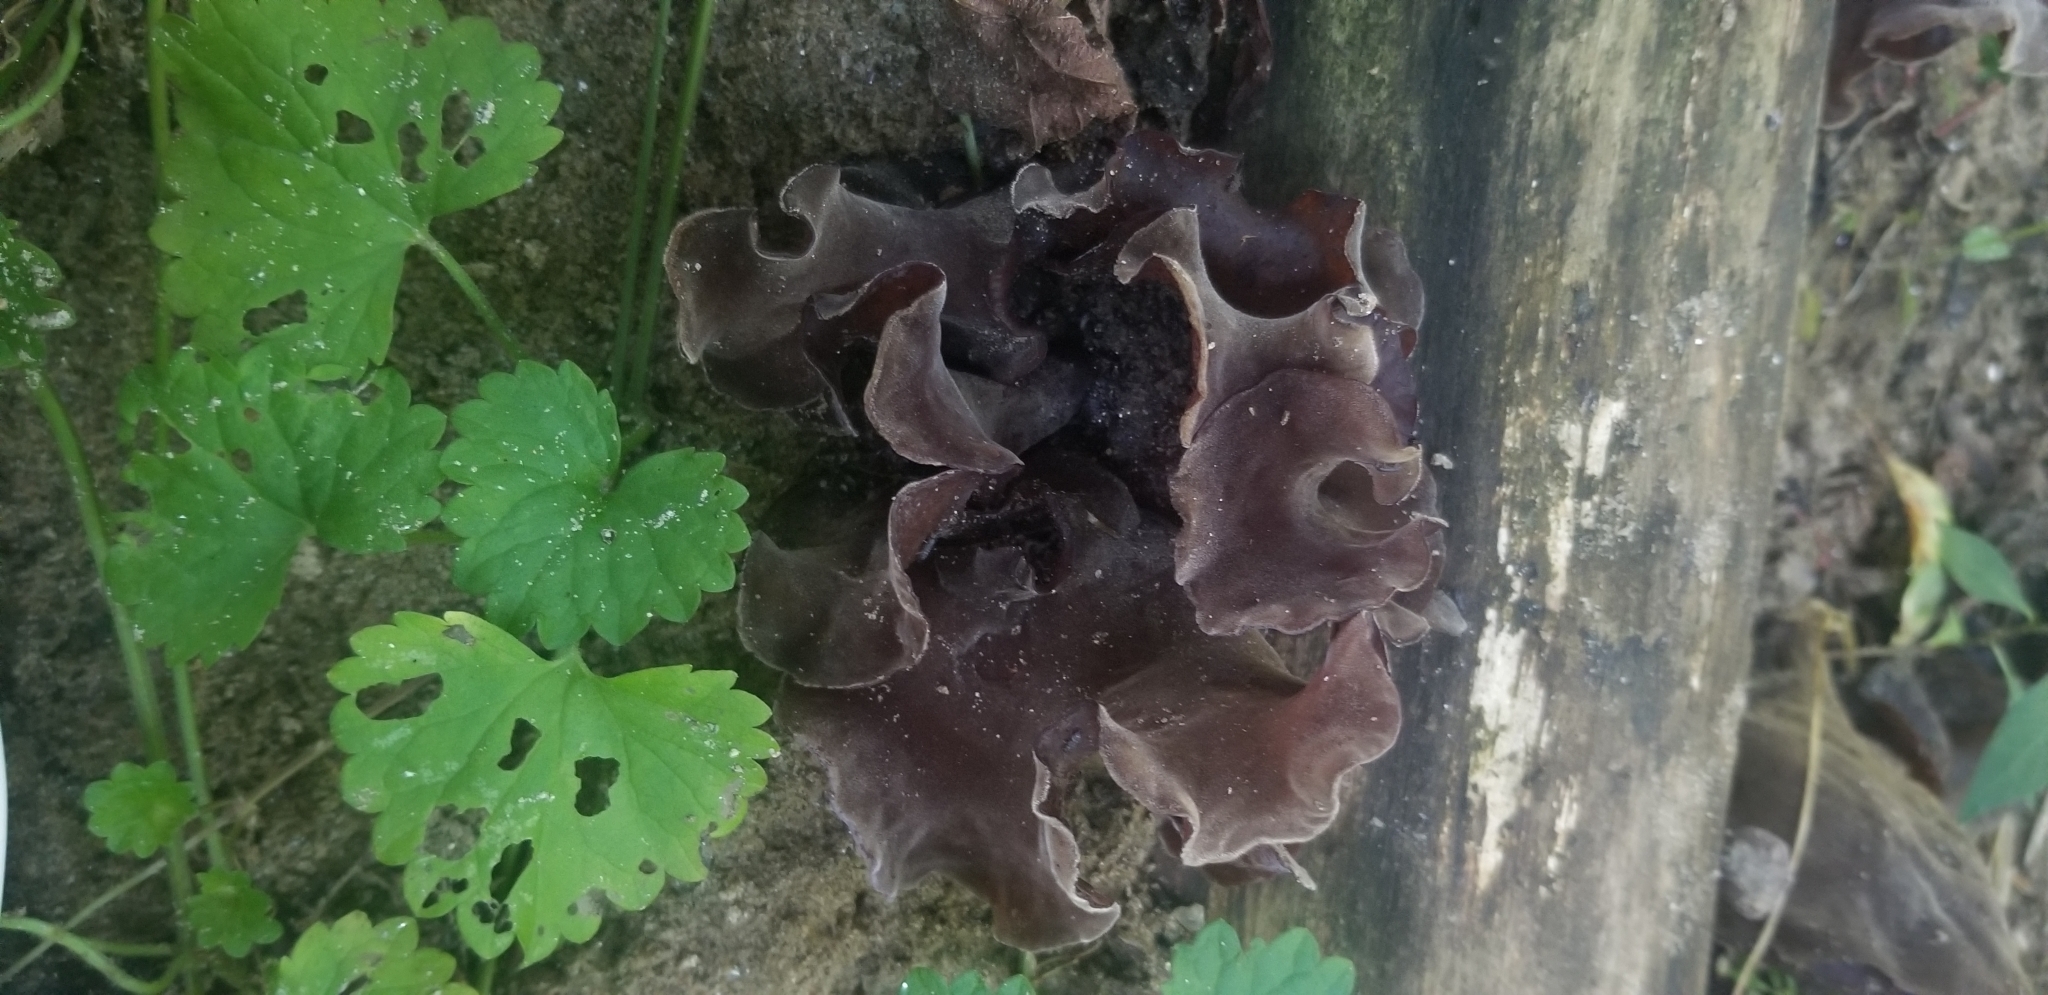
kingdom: Fungi
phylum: Basidiomycota
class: Tremellomycetes
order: Tremellales
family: Tremellaceae
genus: Phaeotremella
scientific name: Phaeotremella foliacea
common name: Leafy brain
